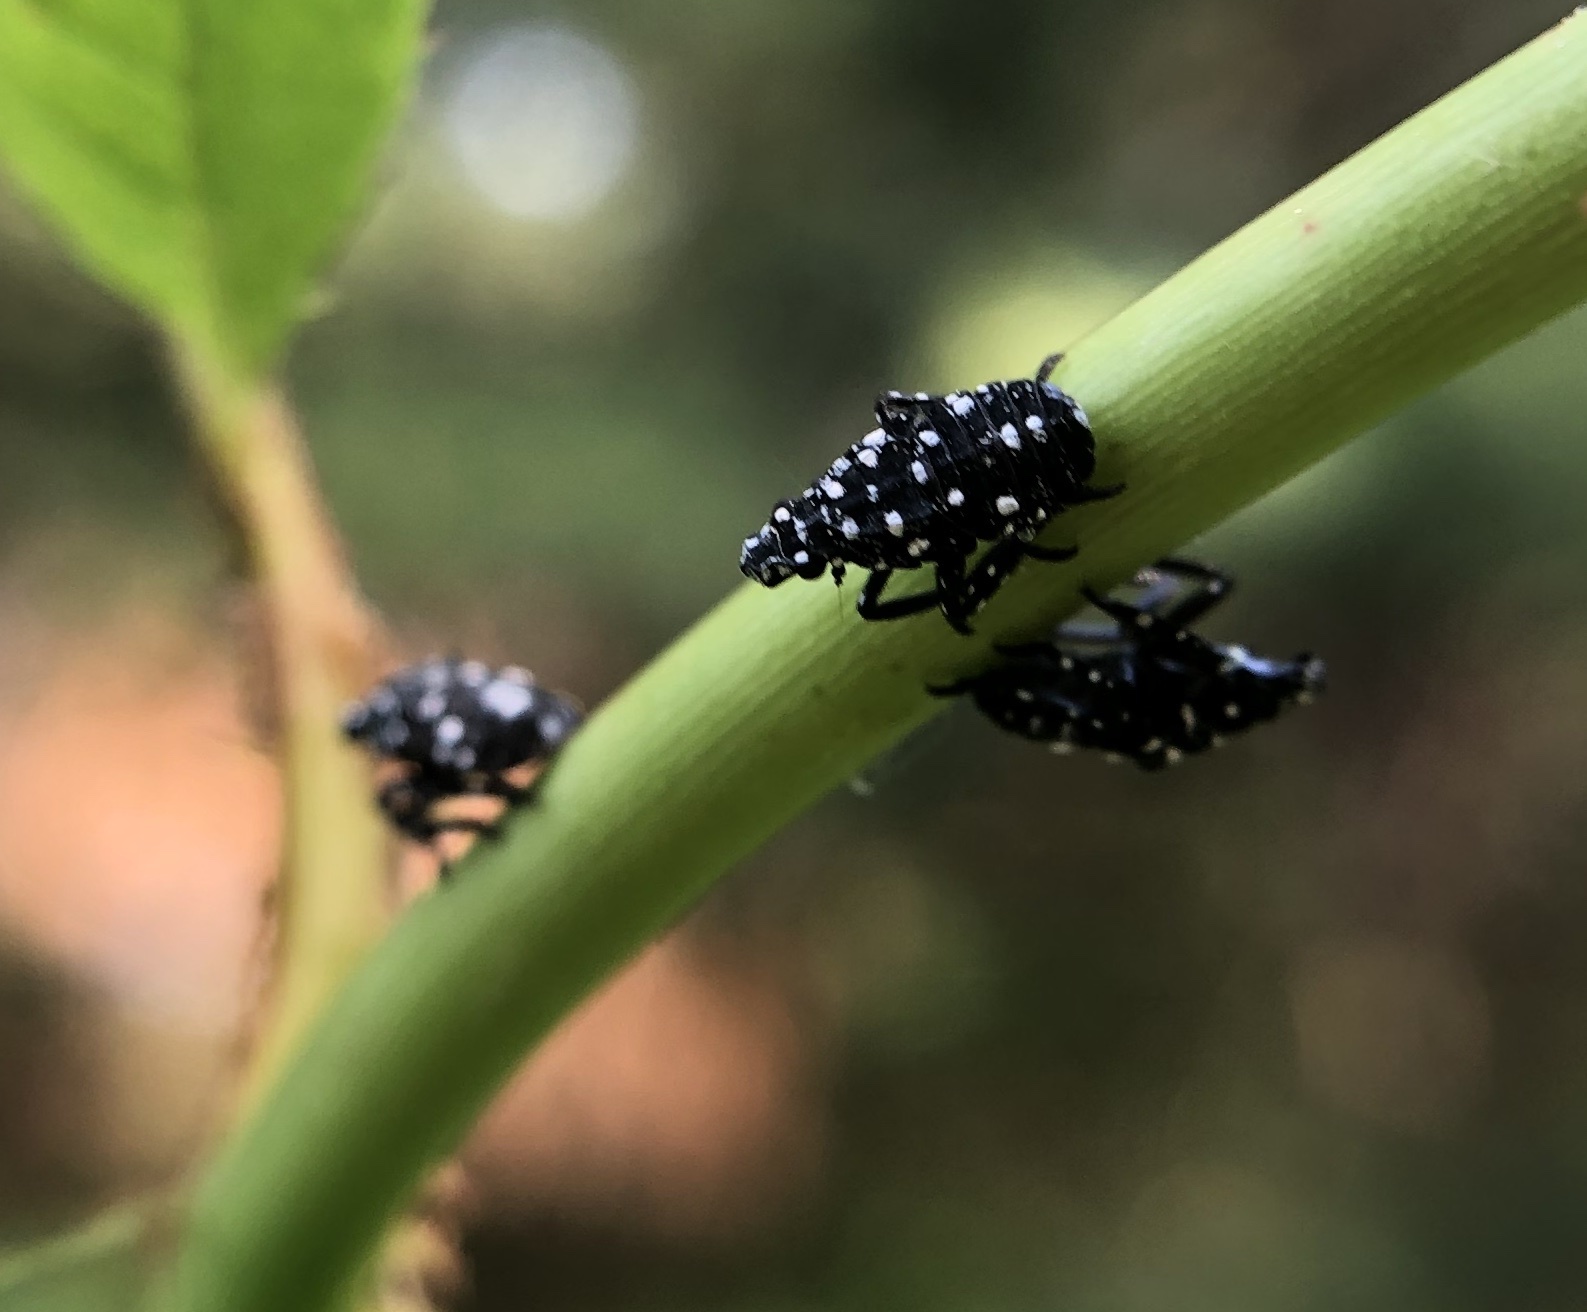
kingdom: Animalia
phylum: Arthropoda
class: Insecta
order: Hemiptera
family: Fulgoridae
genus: Lycorma
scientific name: Lycorma delicatula
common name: Spotted lanternfly
